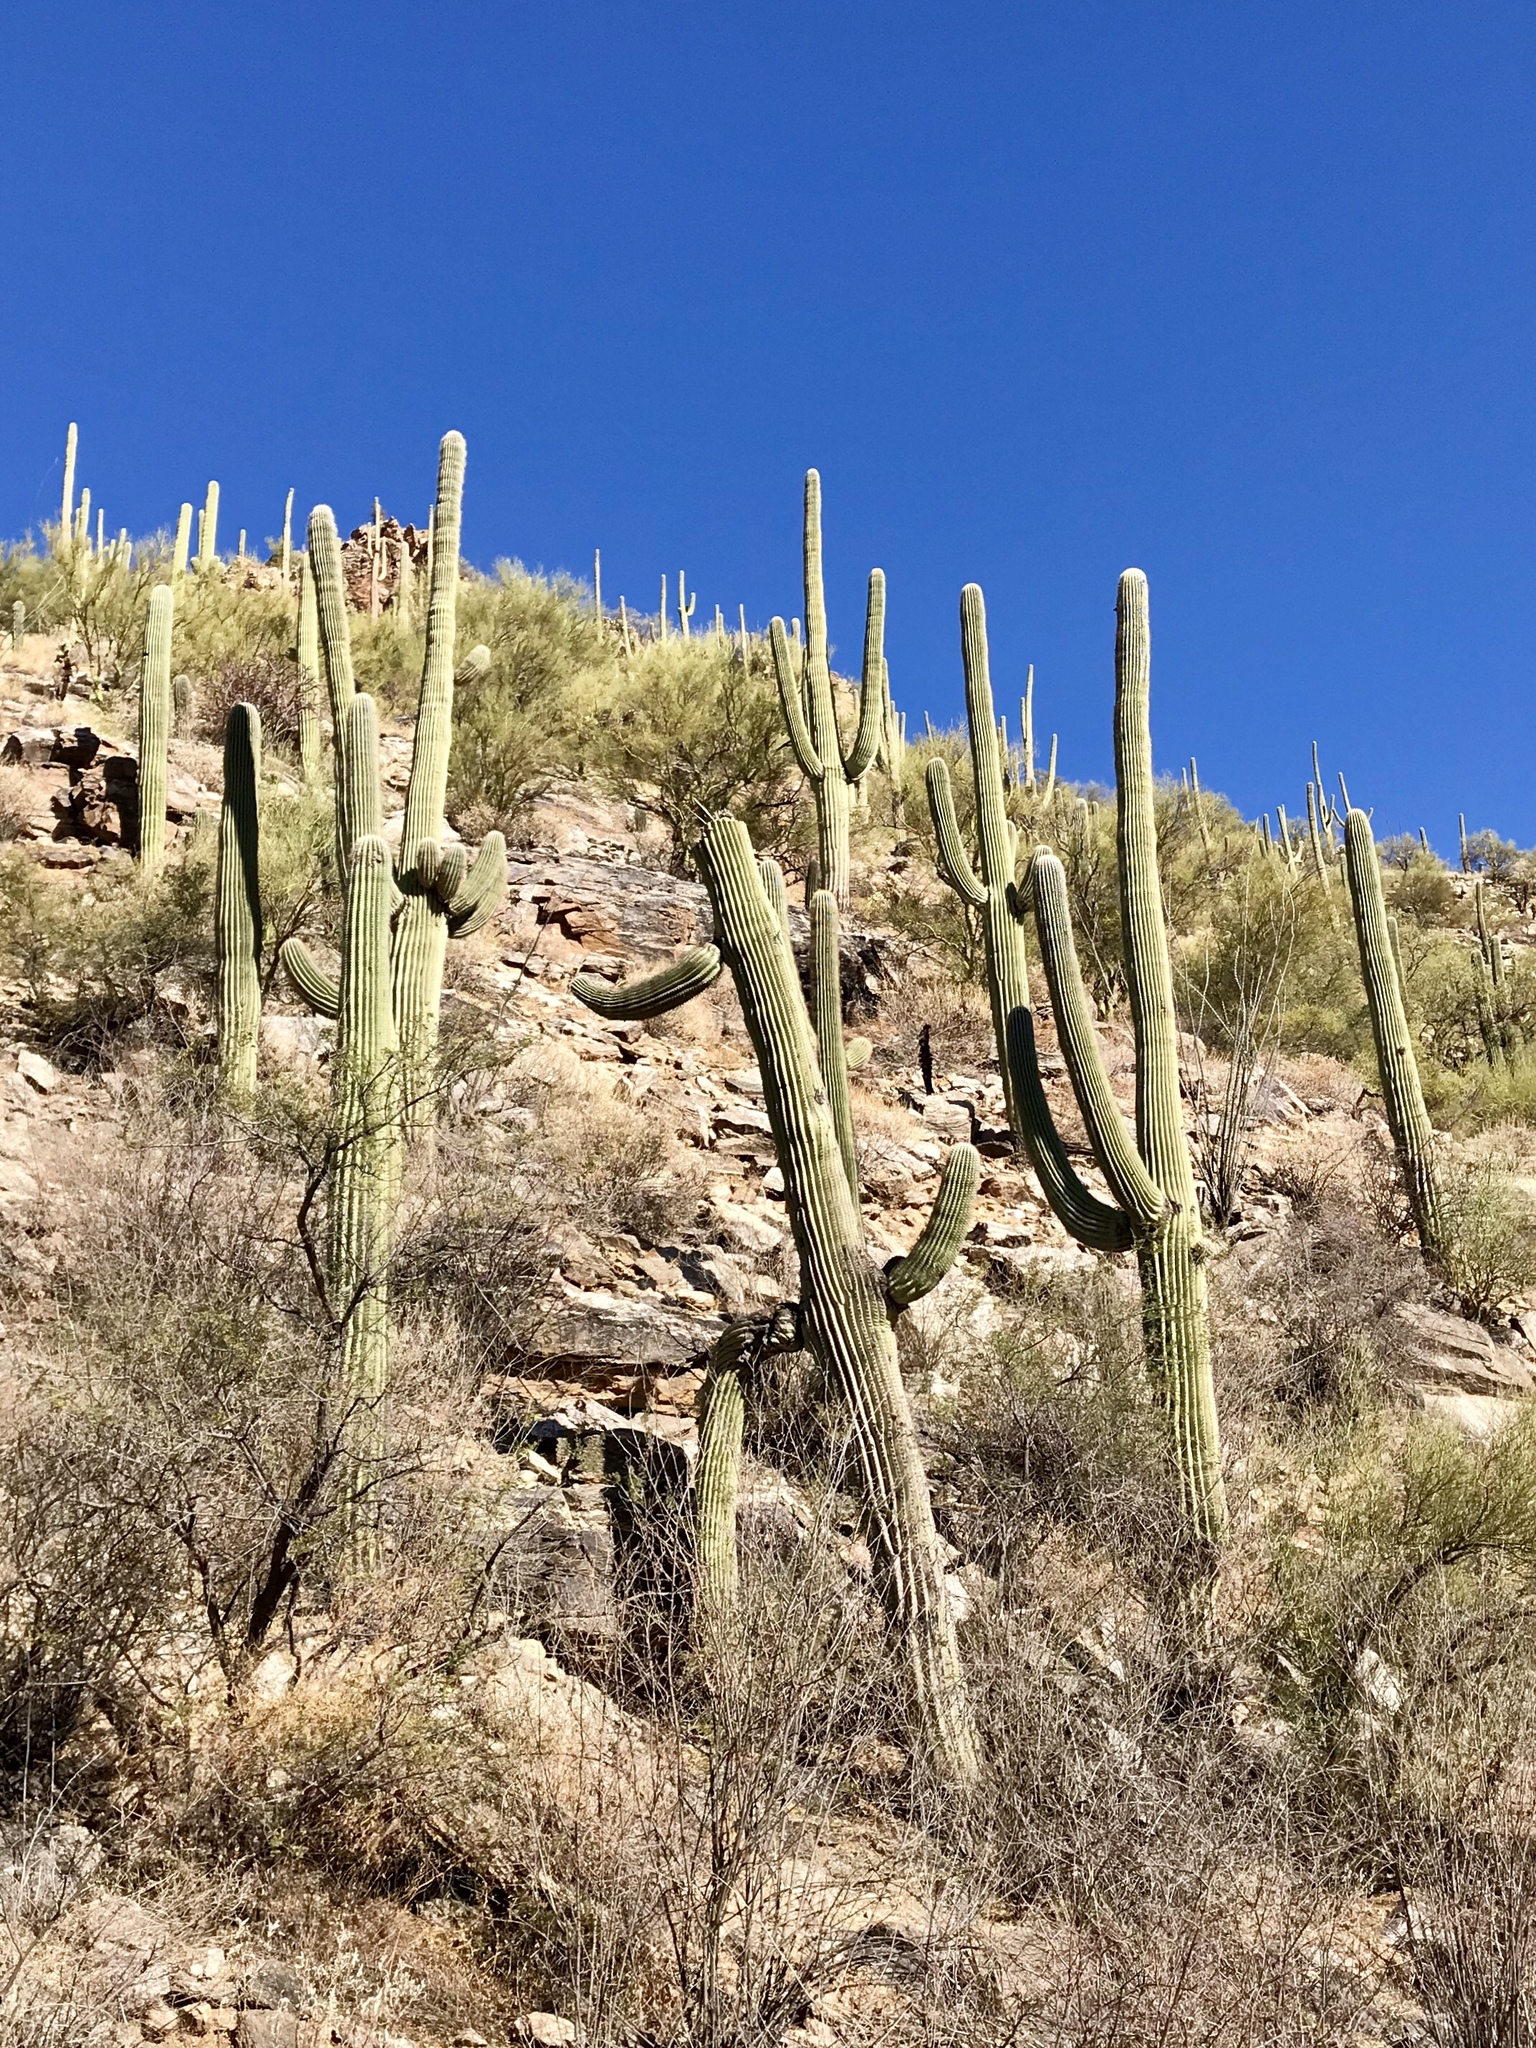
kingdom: Plantae
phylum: Tracheophyta
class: Magnoliopsida
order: Caryophyllales
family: Cactaceae
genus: Carnegiea
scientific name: Carnegiea gigantea
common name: Saguaro
